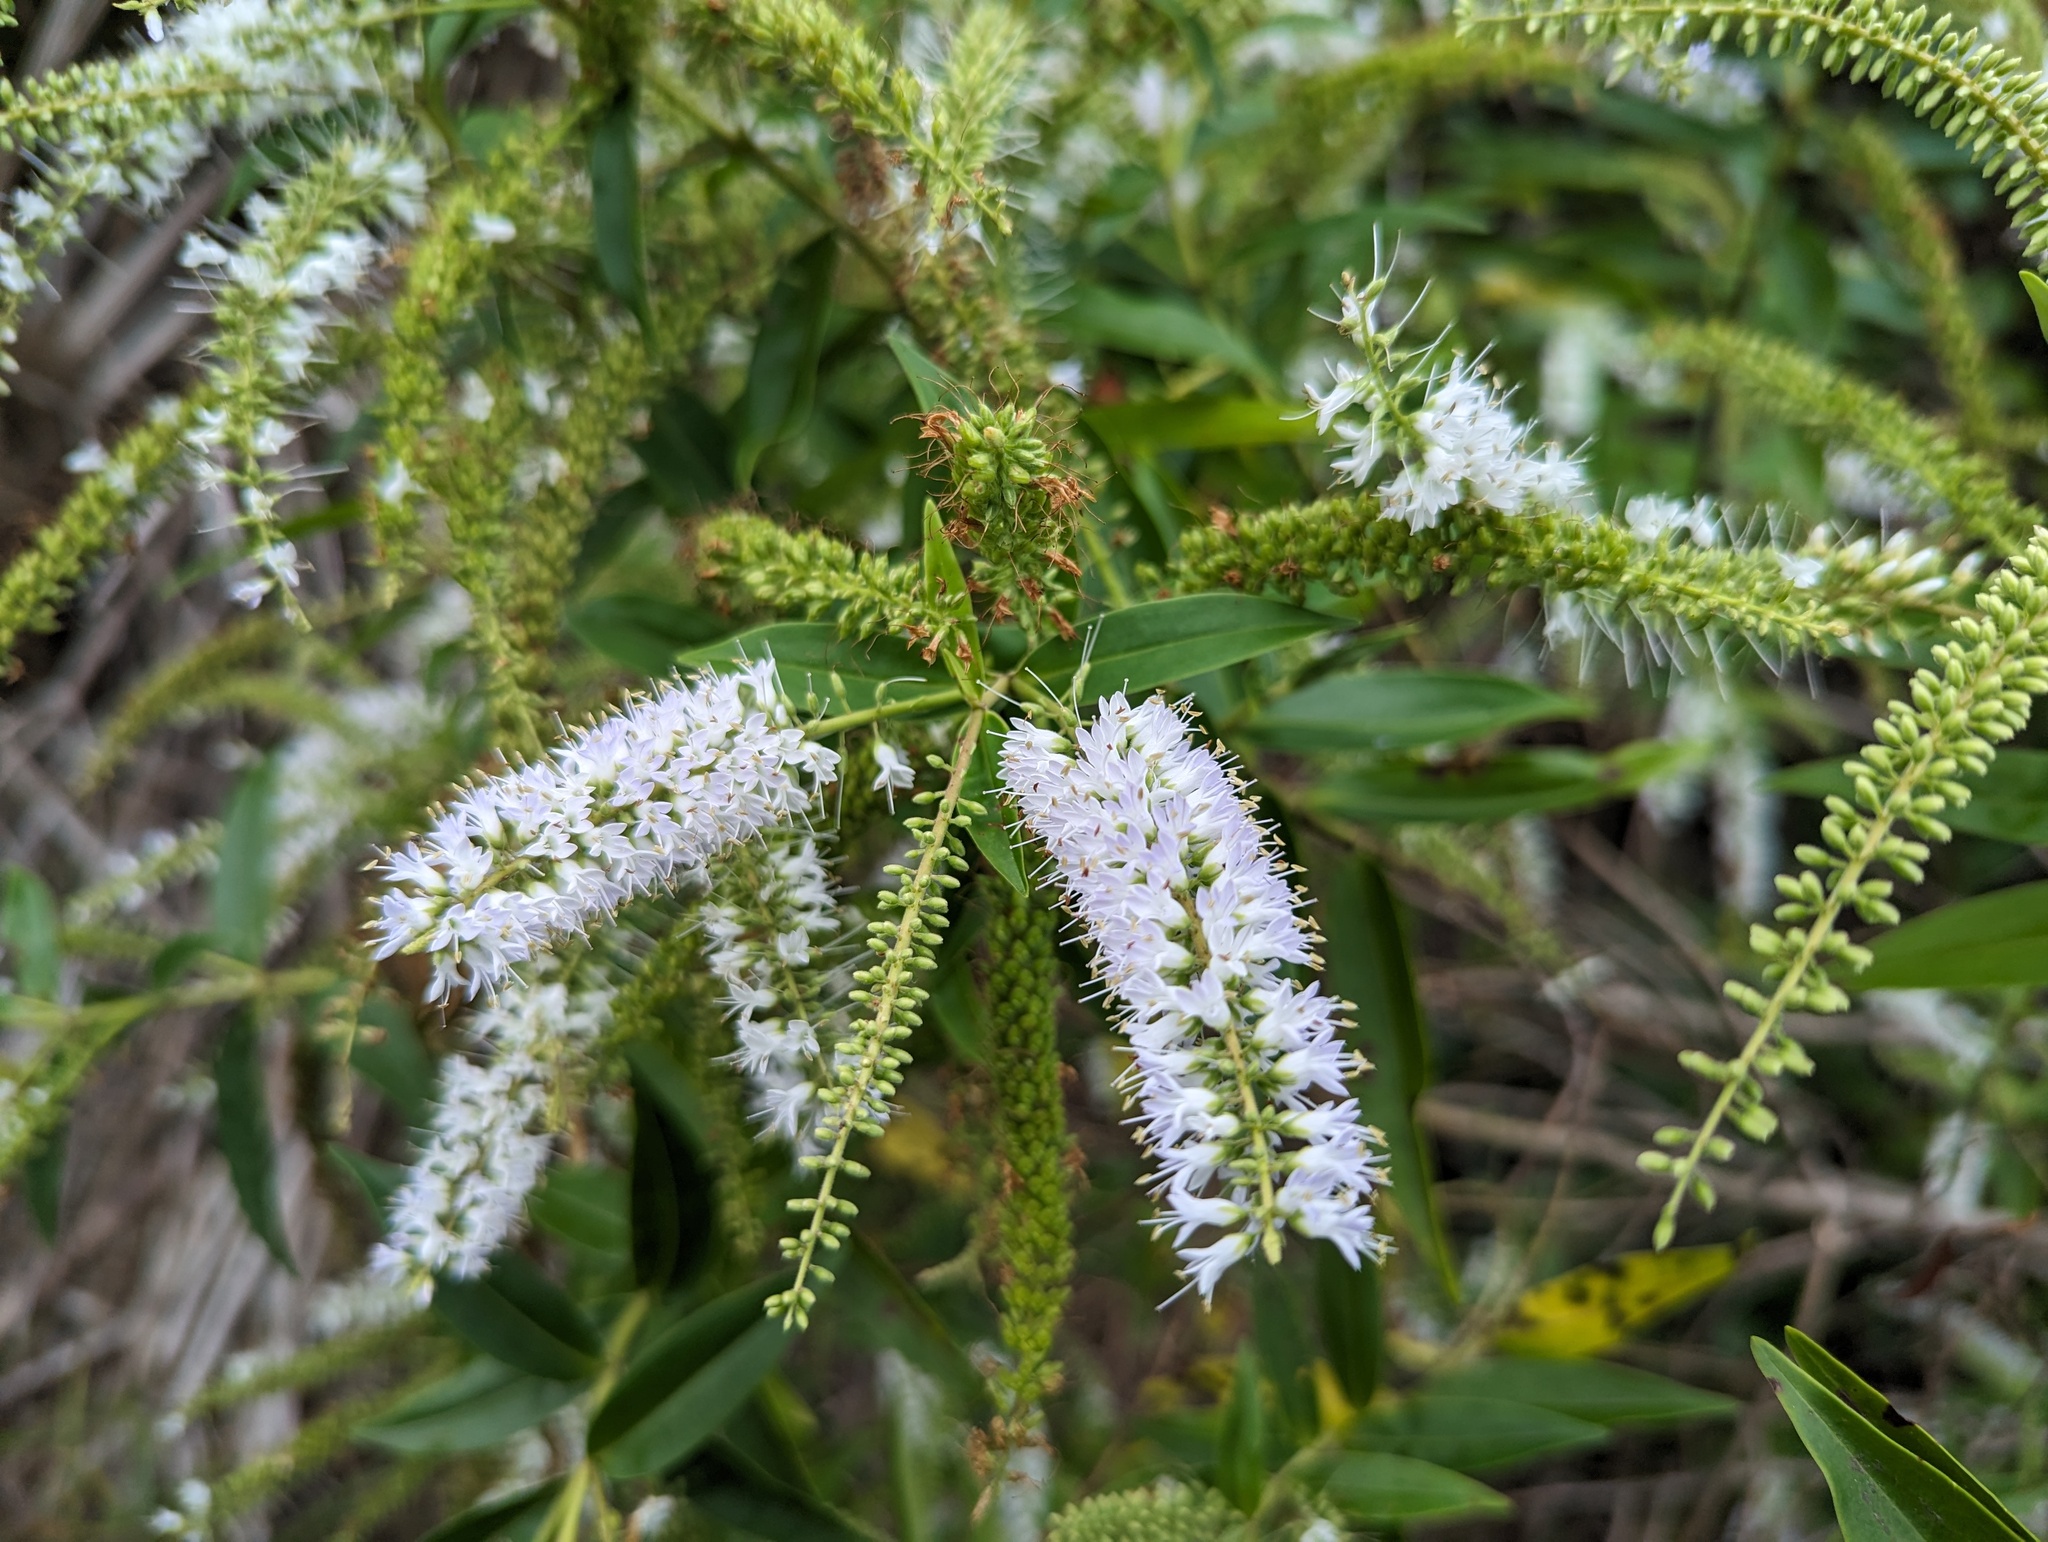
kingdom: Plantae
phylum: Tracheophyta
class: Magnoliopsida
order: Lamiales
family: Plantaginaceae
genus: Veronica
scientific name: Veronica stricta
